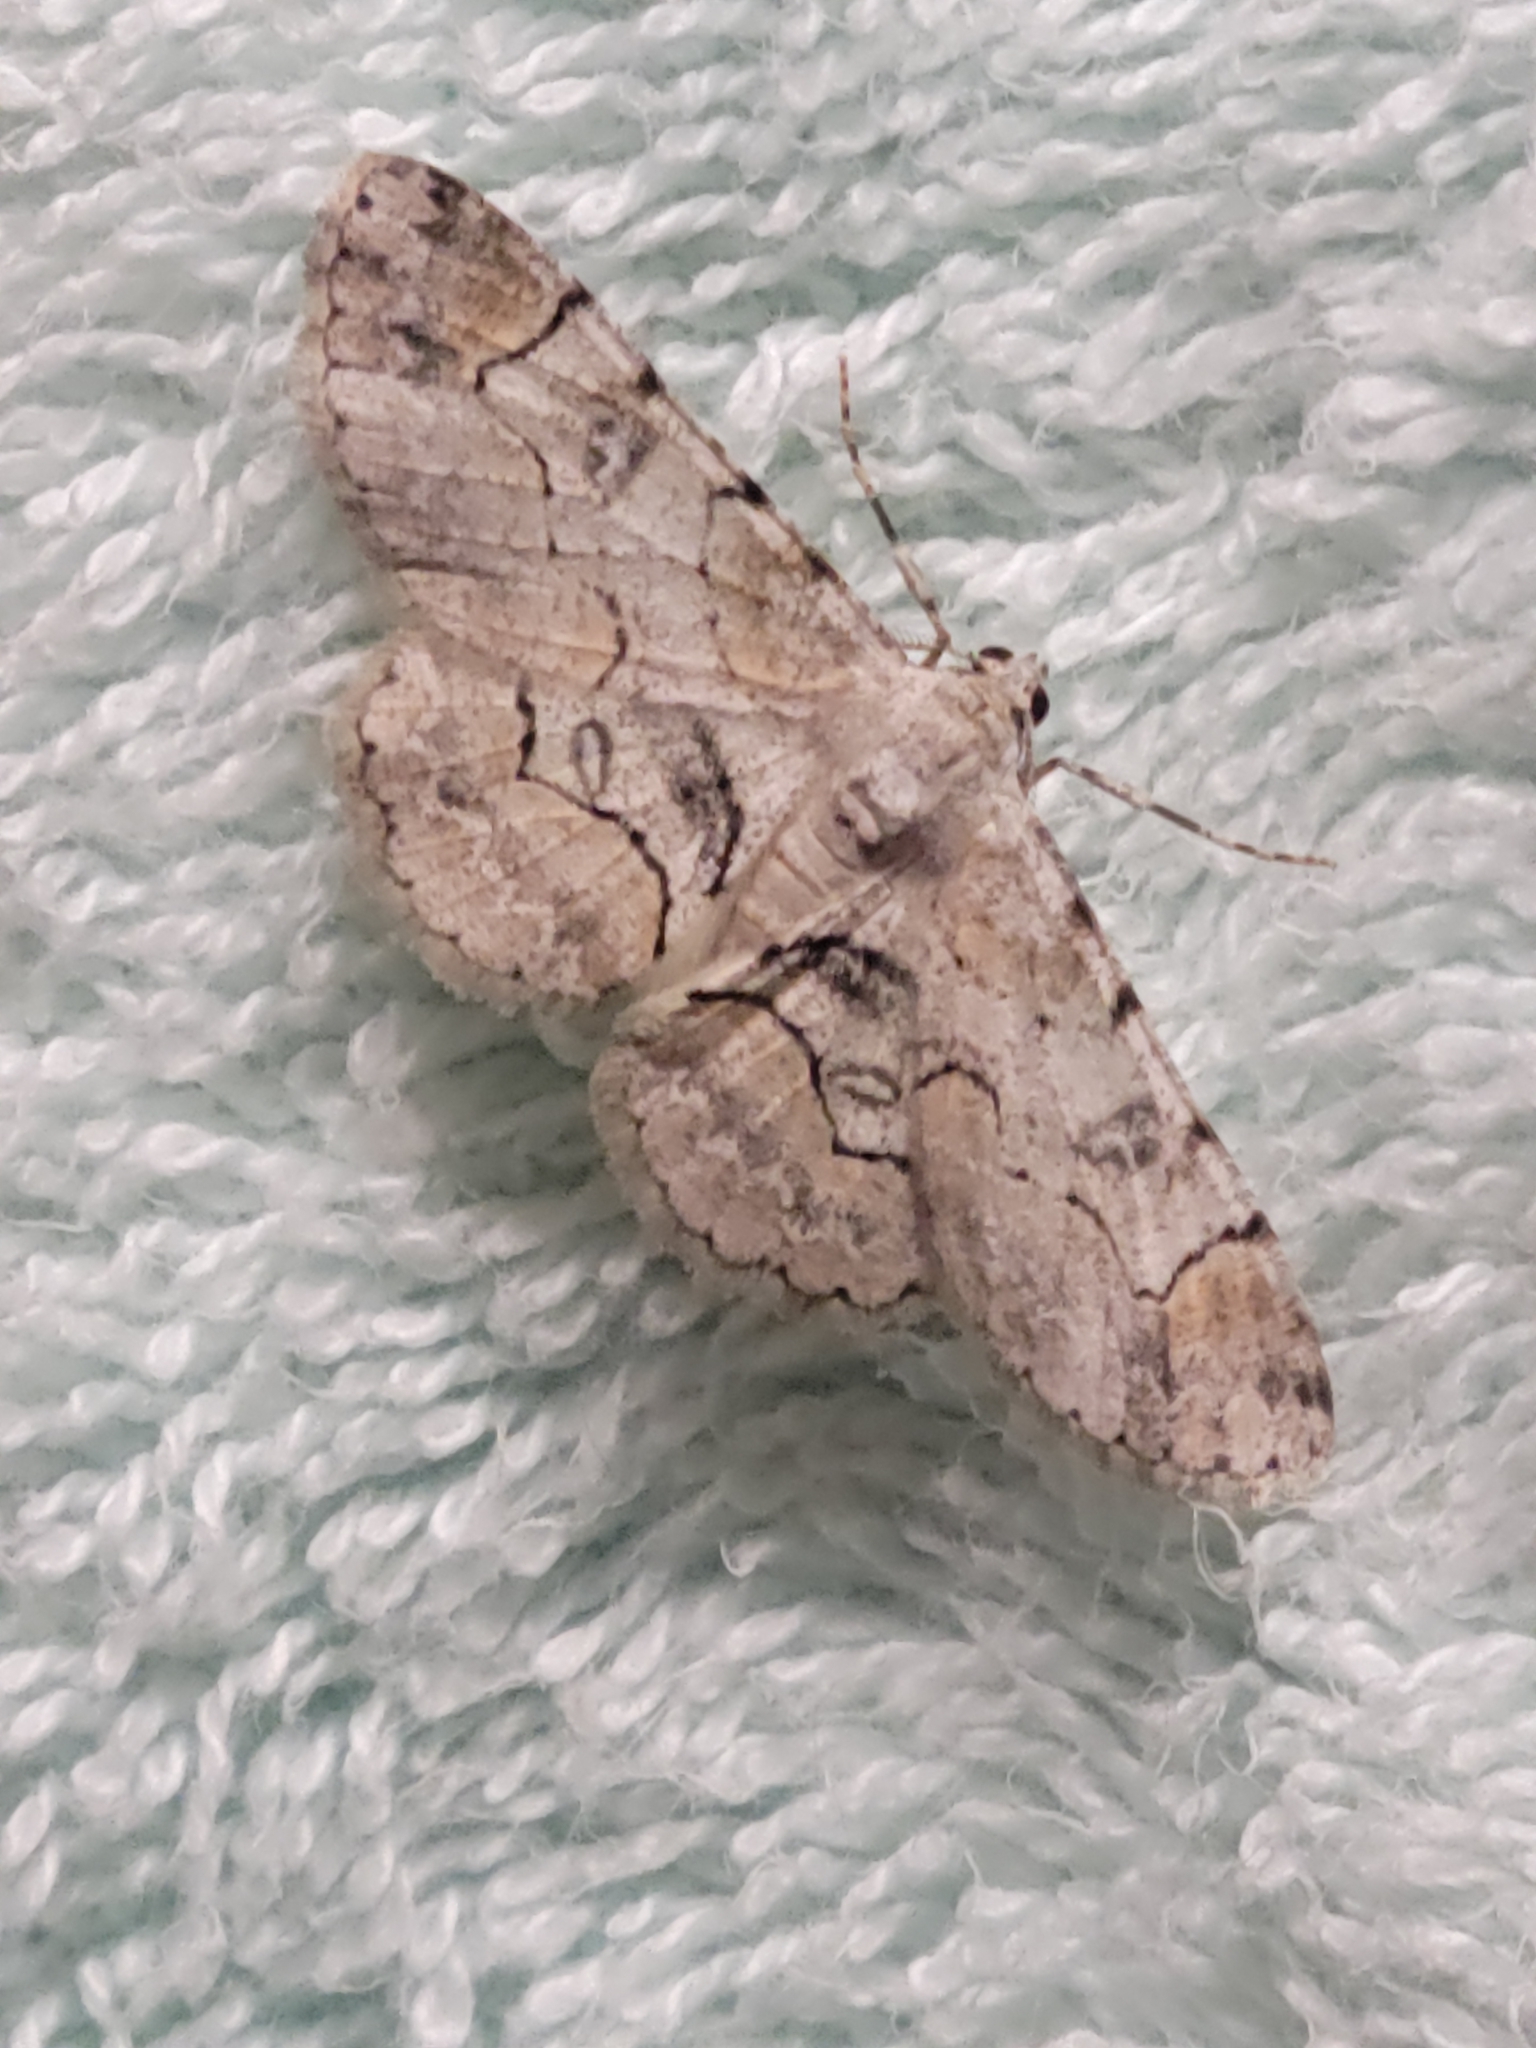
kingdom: Animalia
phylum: Arthropoda
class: Insecta
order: Lepidoptera
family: Geometridae
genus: Iridopsis
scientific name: Iridopsis larvaria
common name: Bent-line gray
